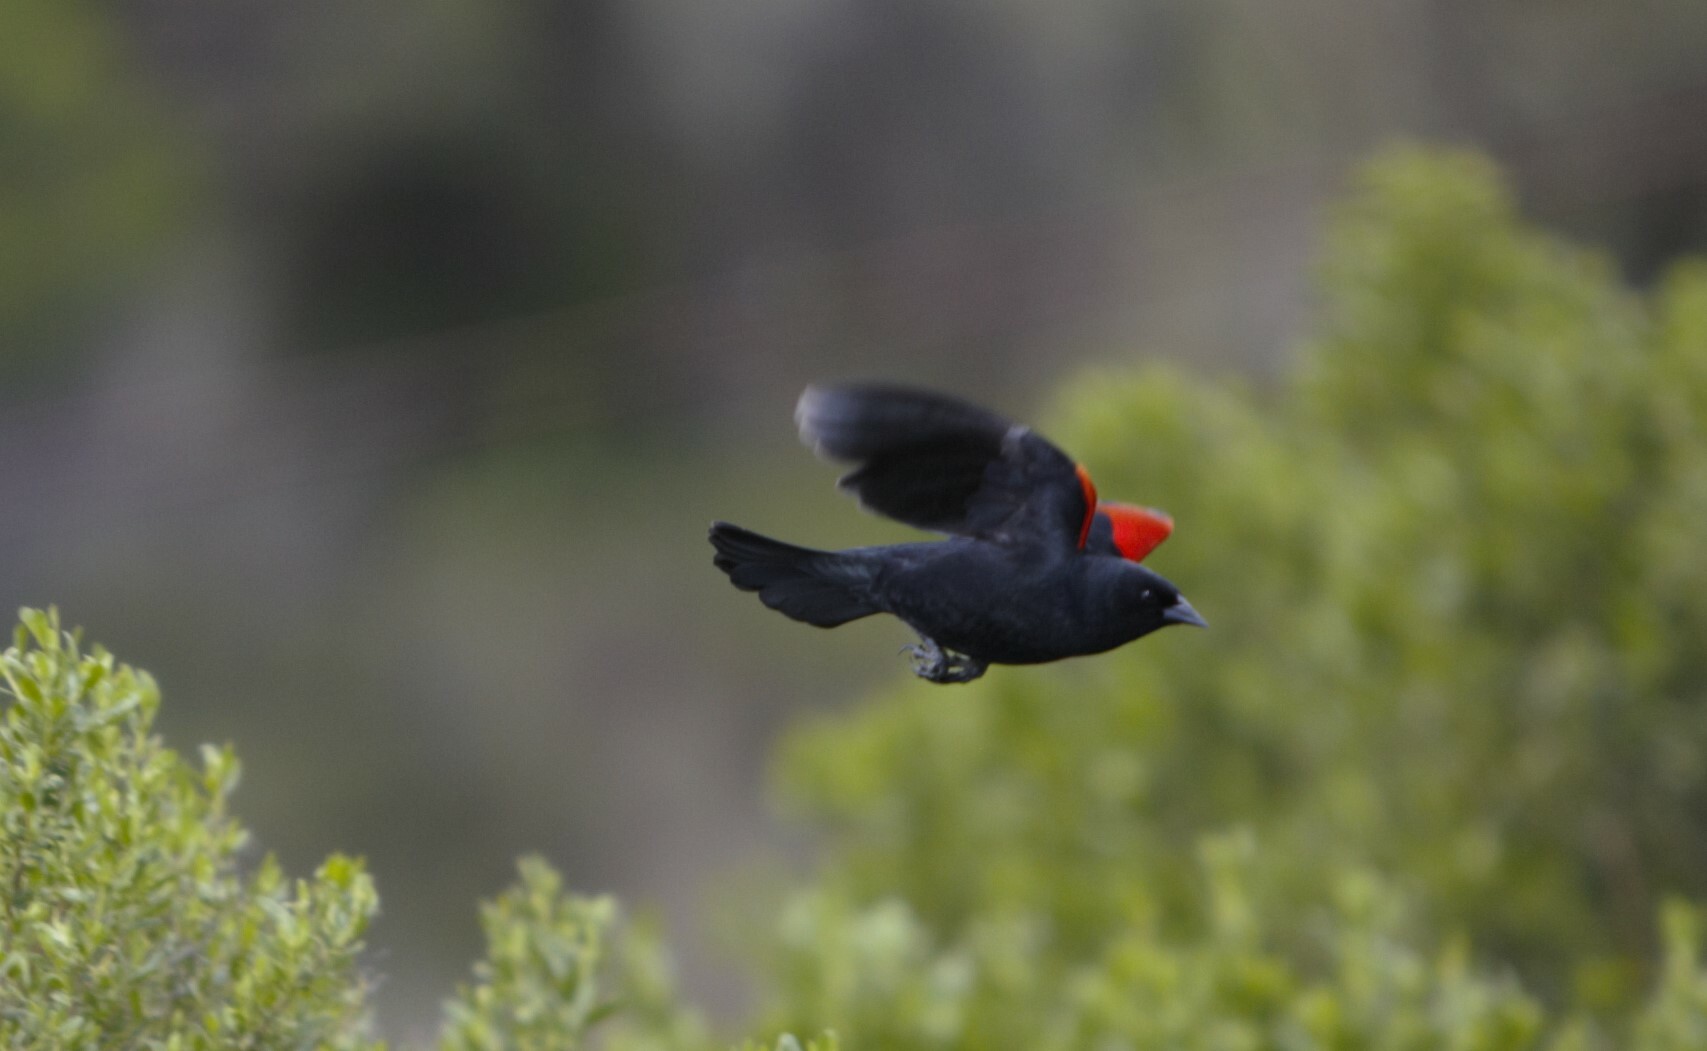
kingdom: Animalia
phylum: Chordata
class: Aves
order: Passeriformes
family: Icteridae
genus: Agelaius
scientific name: Agelaius phoeniceus
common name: Red-winged blackbird
